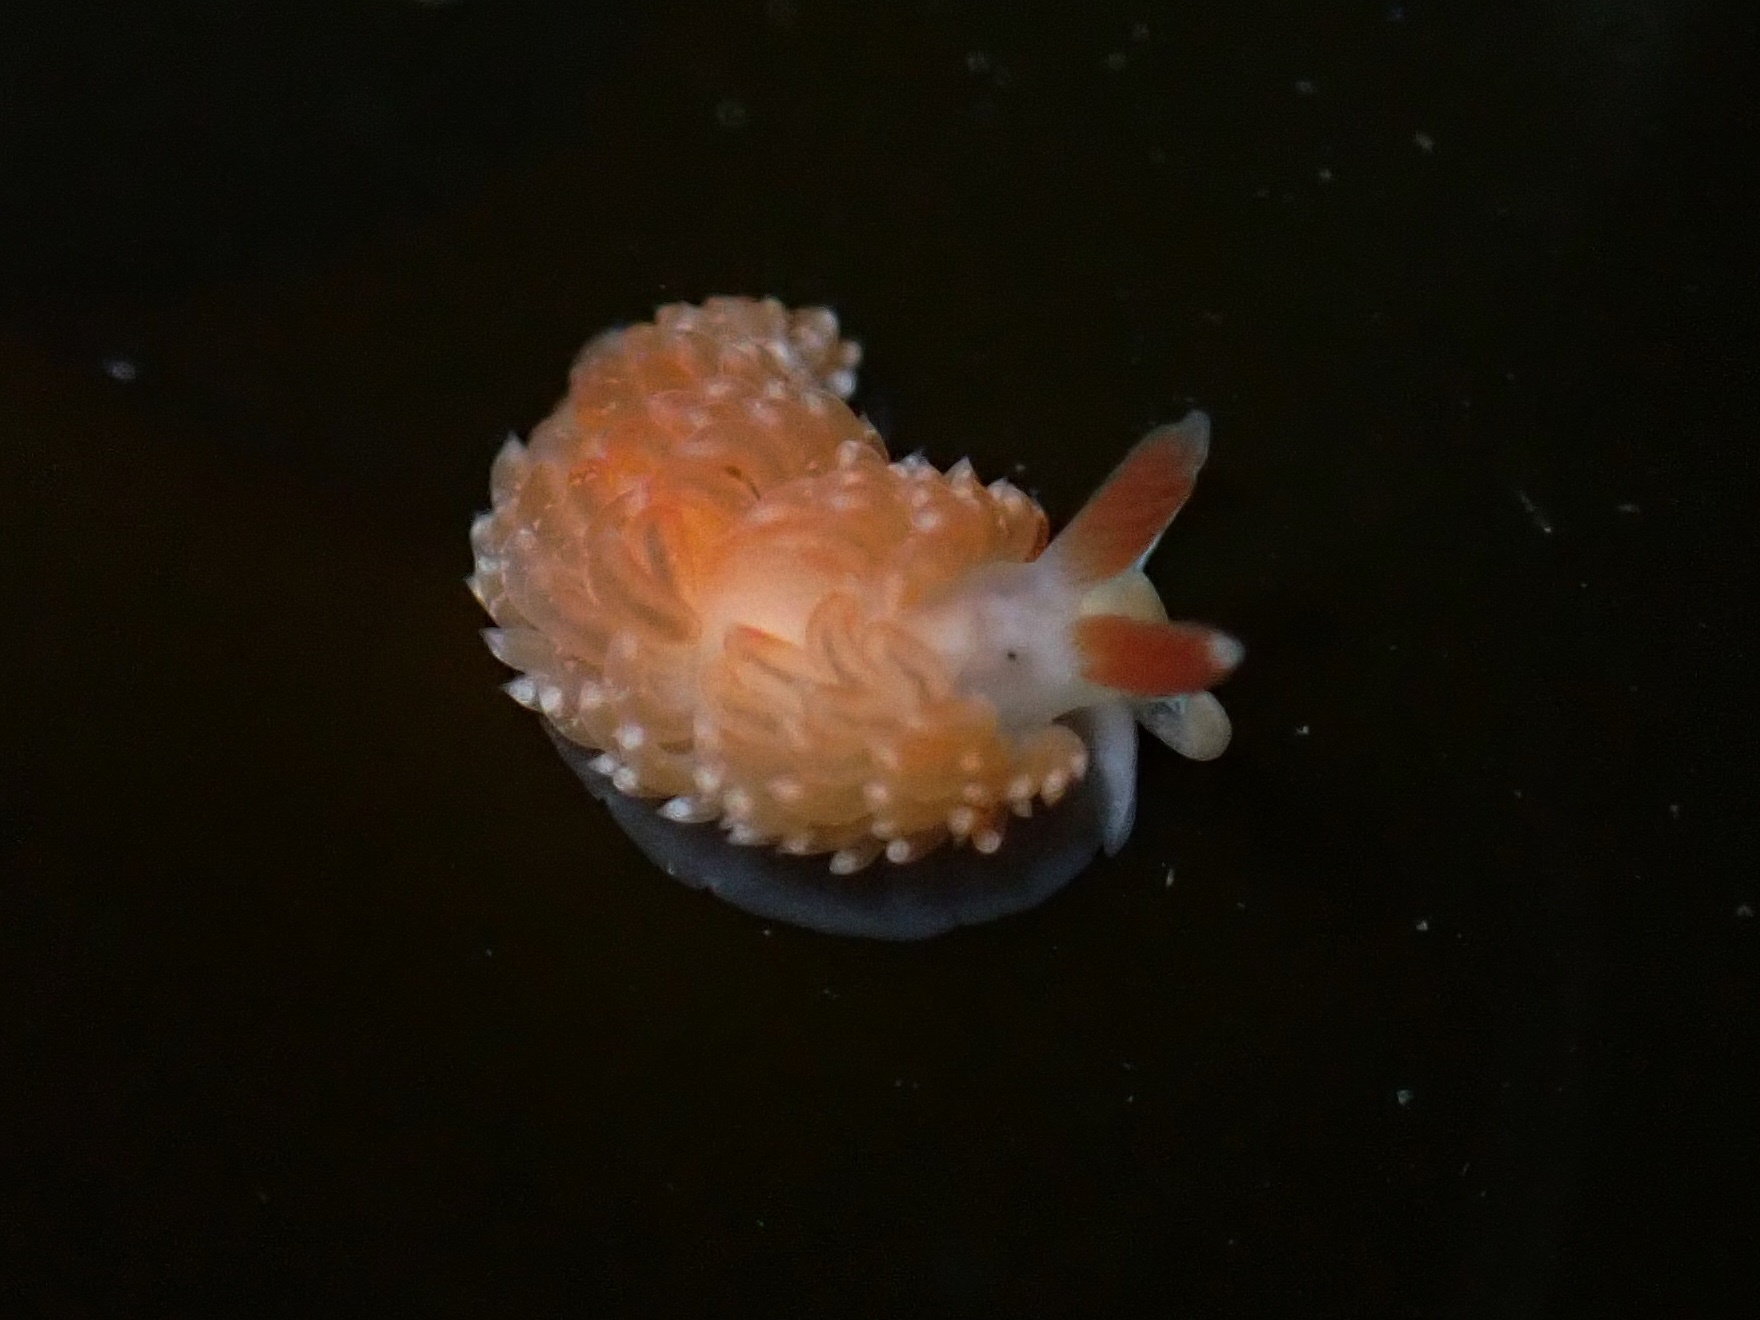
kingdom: Animalia
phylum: Mollusca
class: Gastropoda
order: Nudibranchia
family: Aeolidiidae
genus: Anteaeolidiella
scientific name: Anteaeolidiella oliviae
